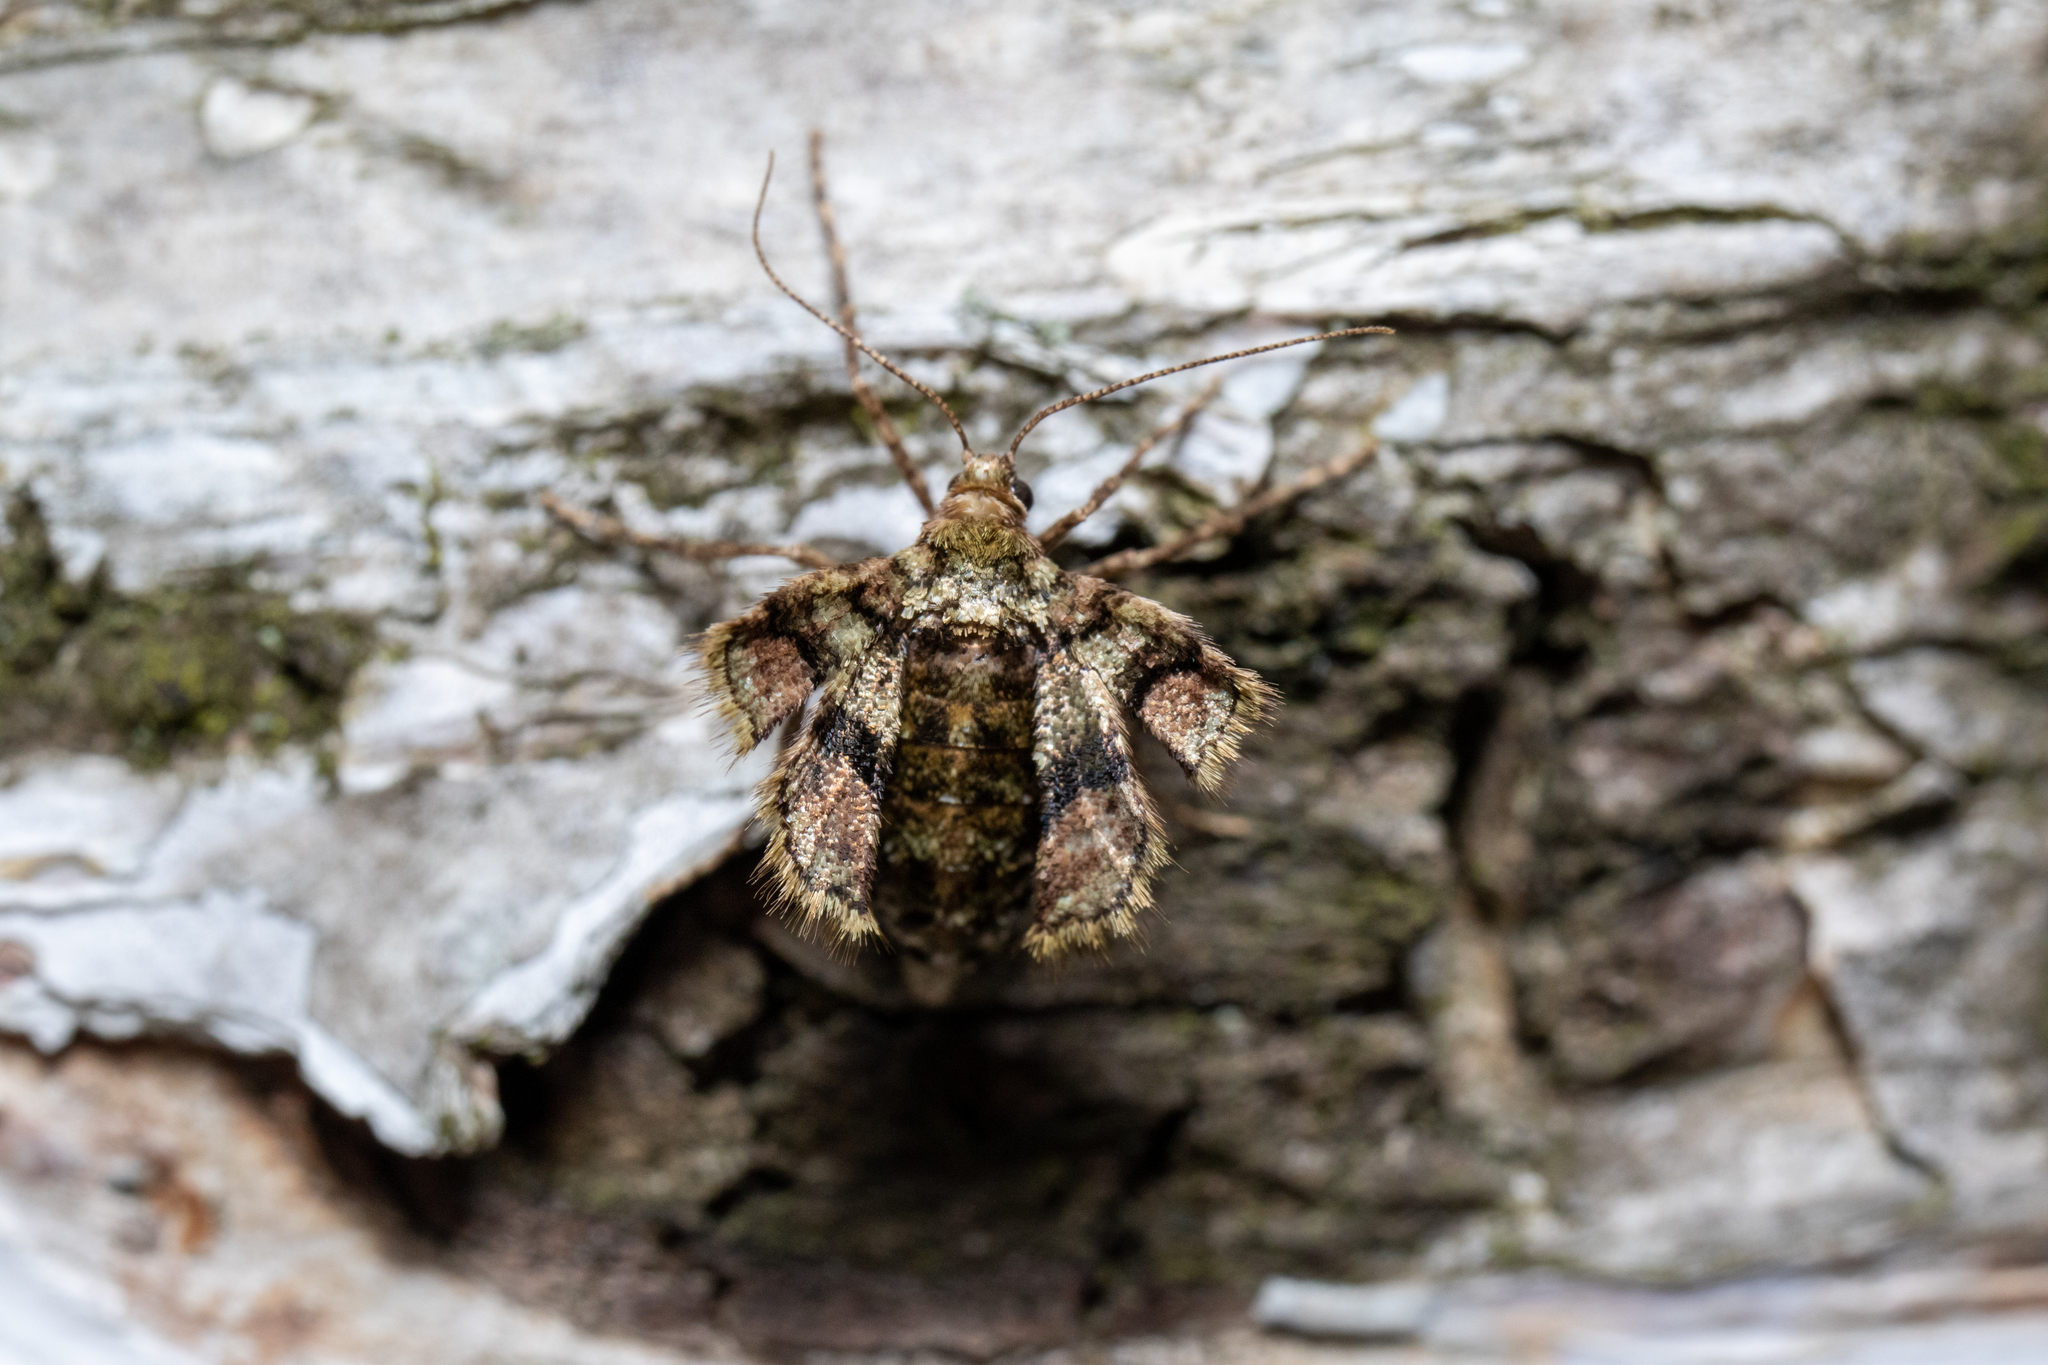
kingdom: Animalia
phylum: Arthropoda
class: Insecta
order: Lepidoptera
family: Geometridae
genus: Agriopis
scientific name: Agriopis marginaria
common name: Dotted border
